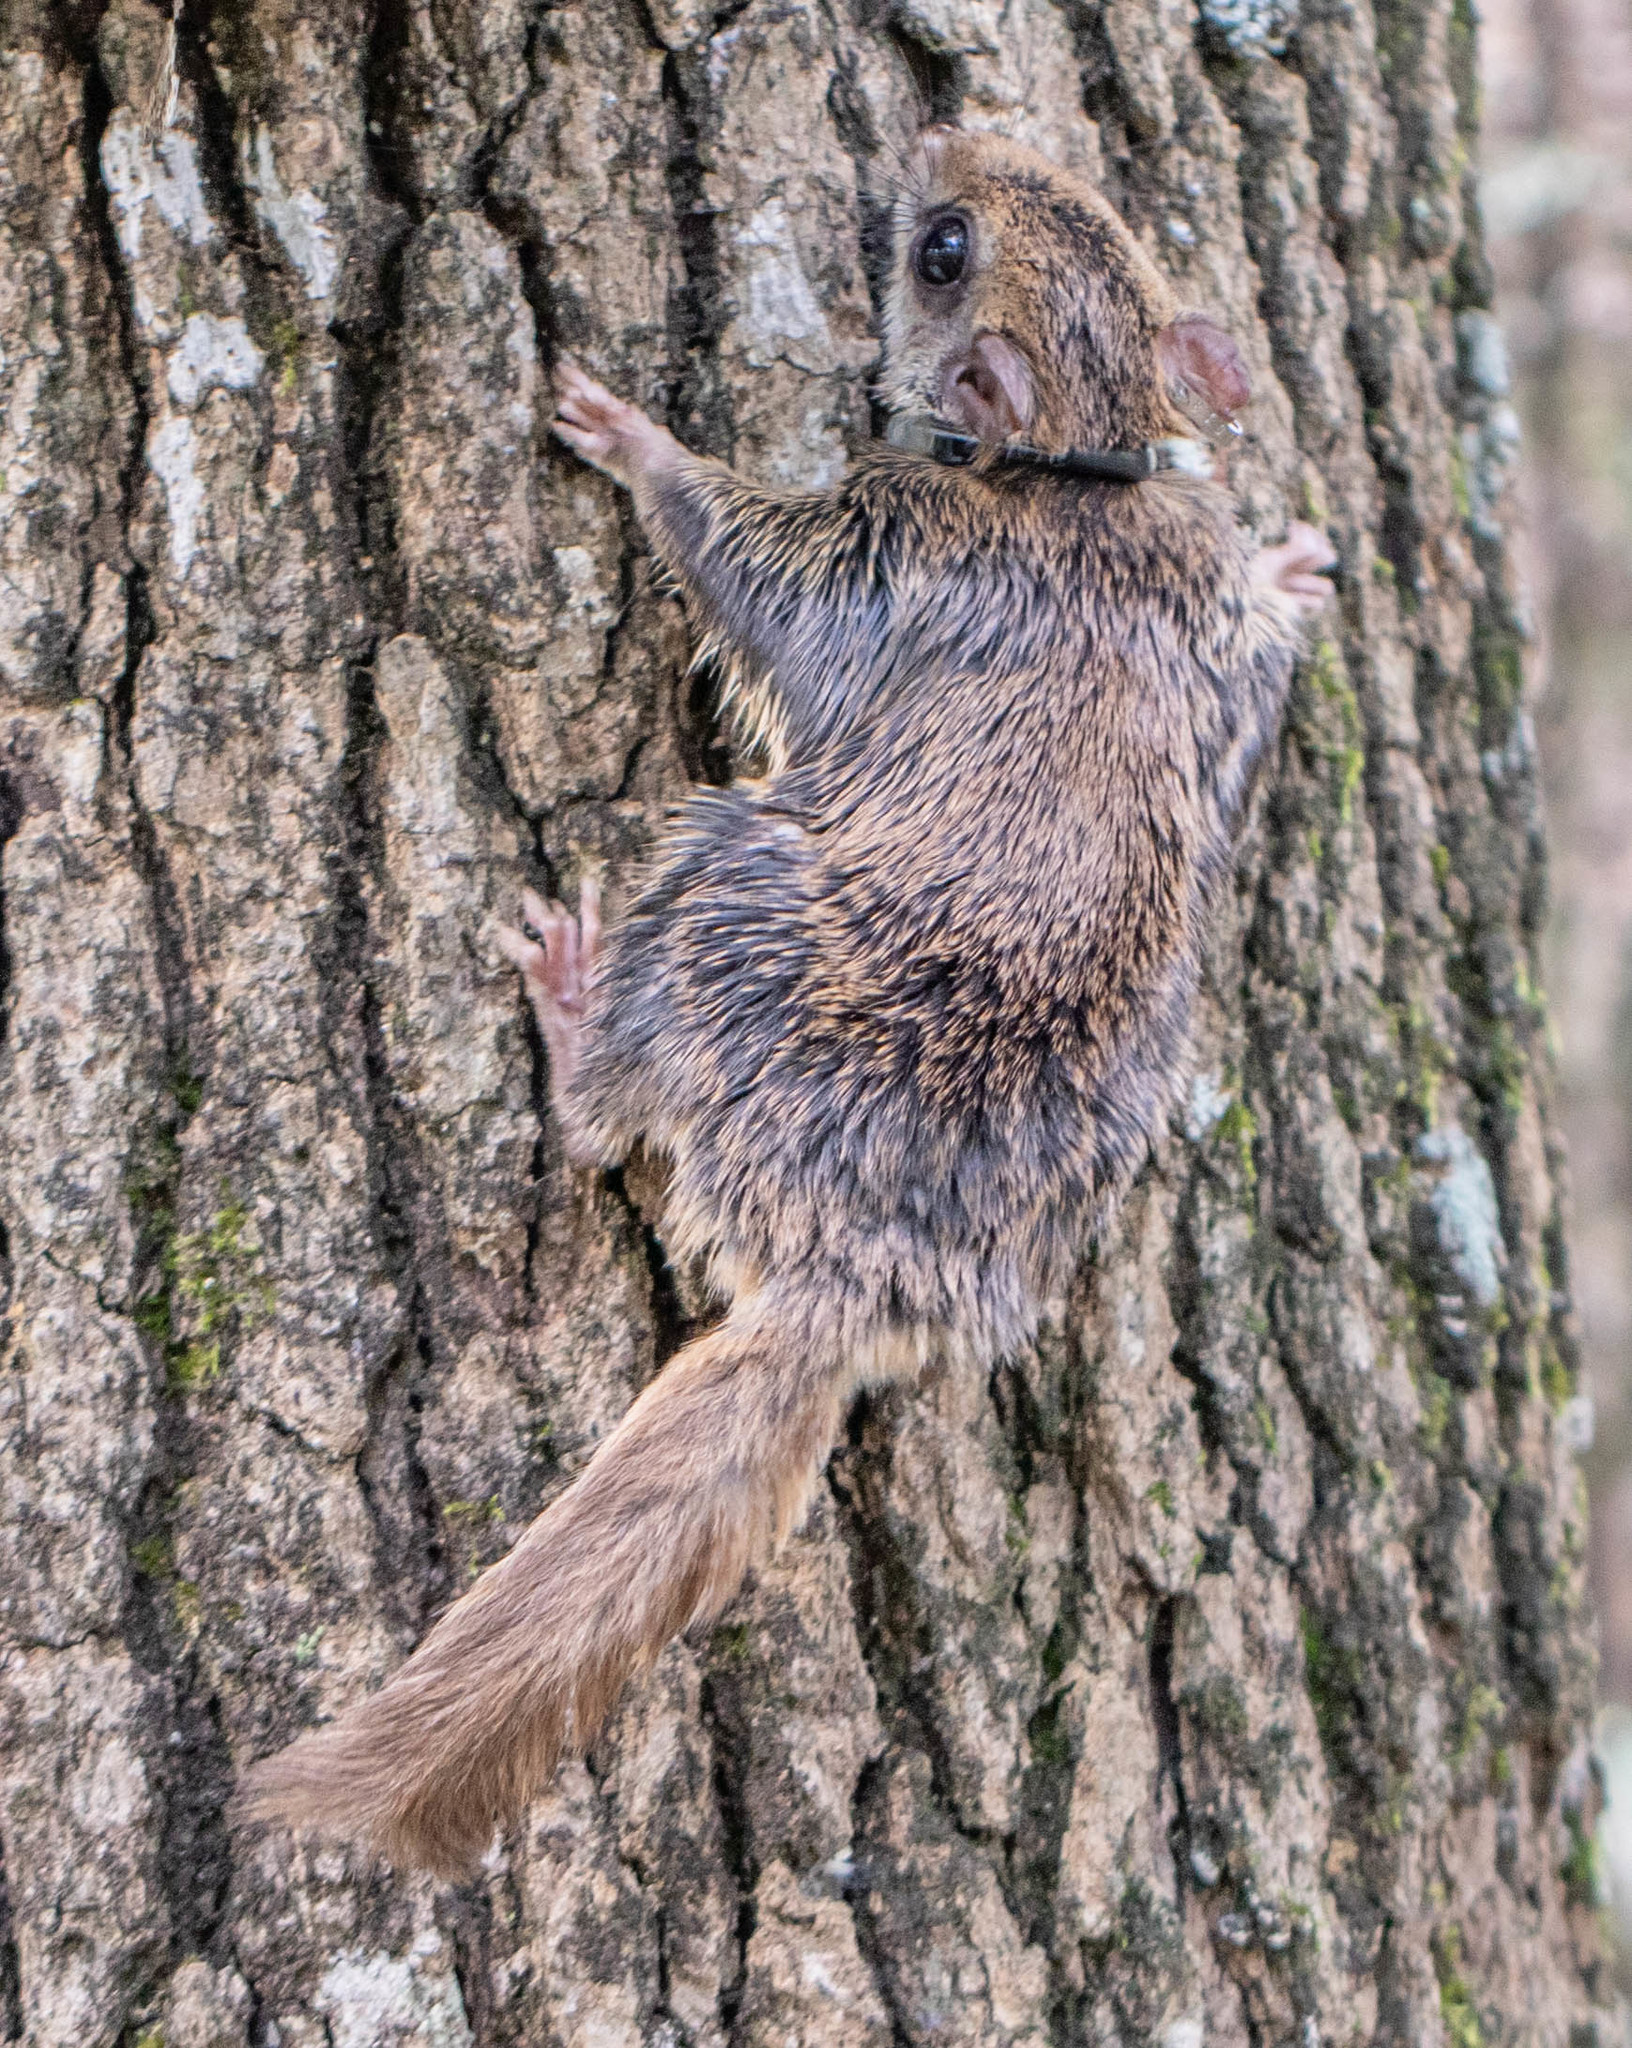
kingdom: Animalia
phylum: Chordata
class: Mammalia
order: Rodentia
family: Sciuridae
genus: Glaucomys
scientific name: Glaucomys volans
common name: Southern flying squirrel
